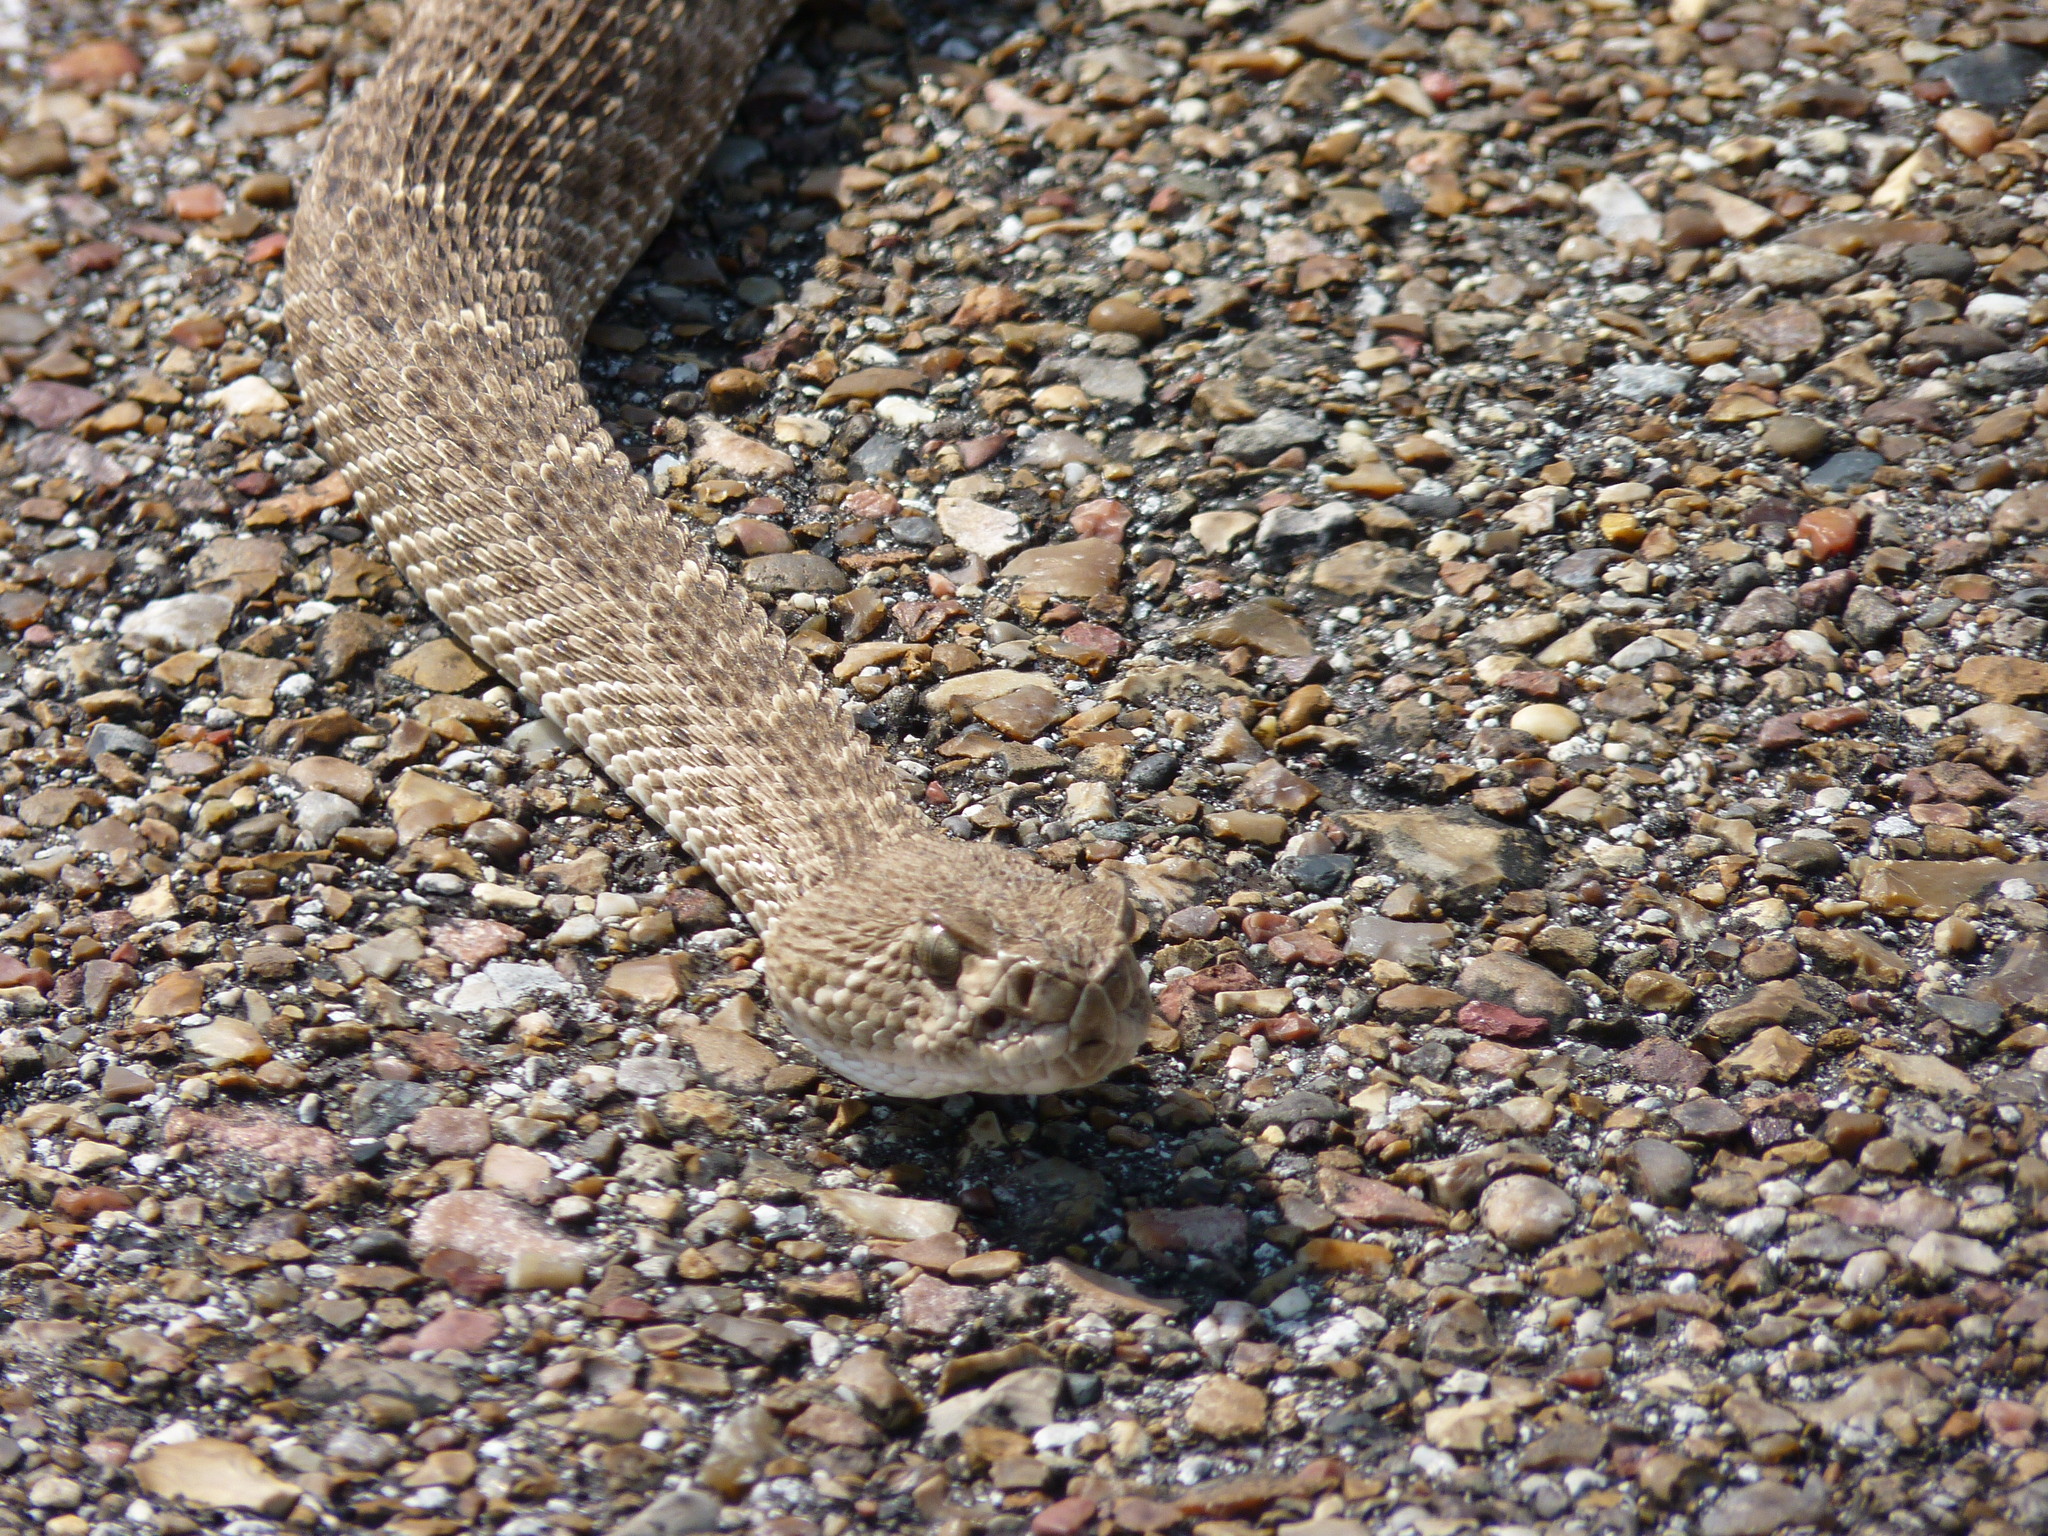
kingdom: Animalia
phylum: Chordata
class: Squamata
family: Viperidae
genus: Crotalus
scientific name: Crotalus atrox
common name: Western diamond-backed rattlesnake
